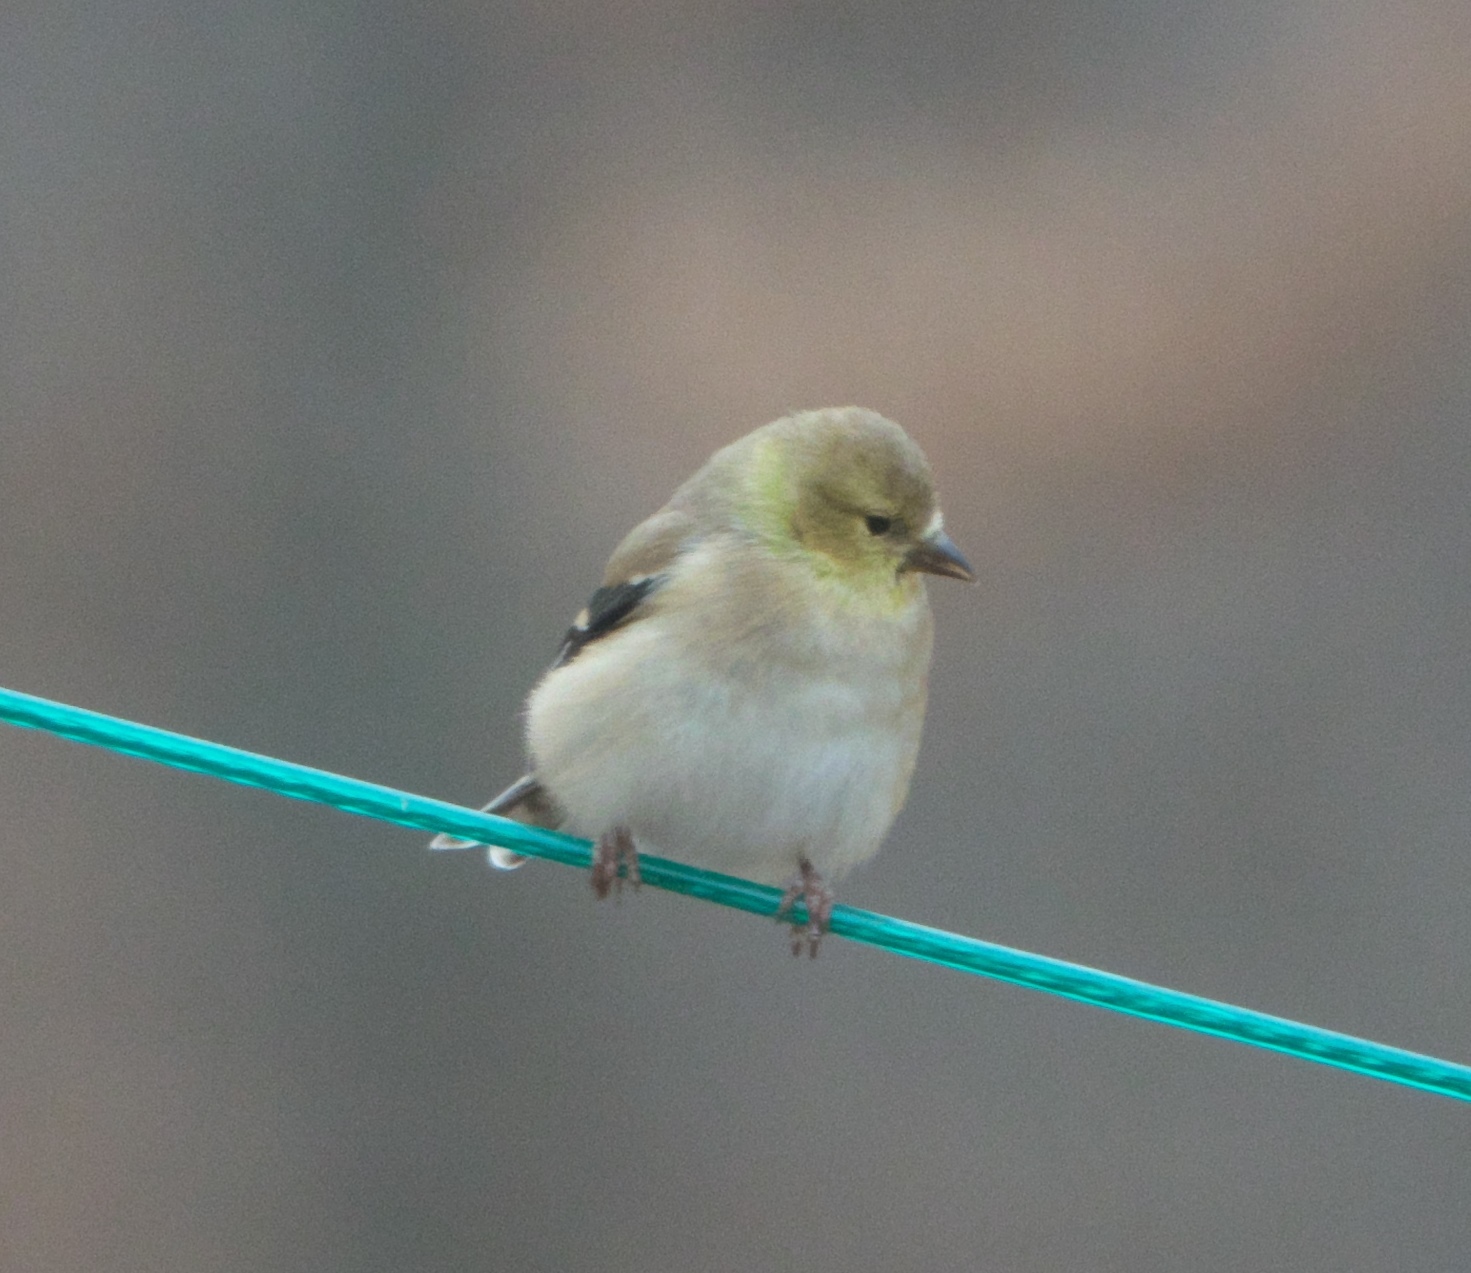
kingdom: Animalia
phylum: Chordata
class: Aves
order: Passeriformes
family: Fringillidae
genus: Spinus
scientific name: Spinus tristis
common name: American goldfinch
